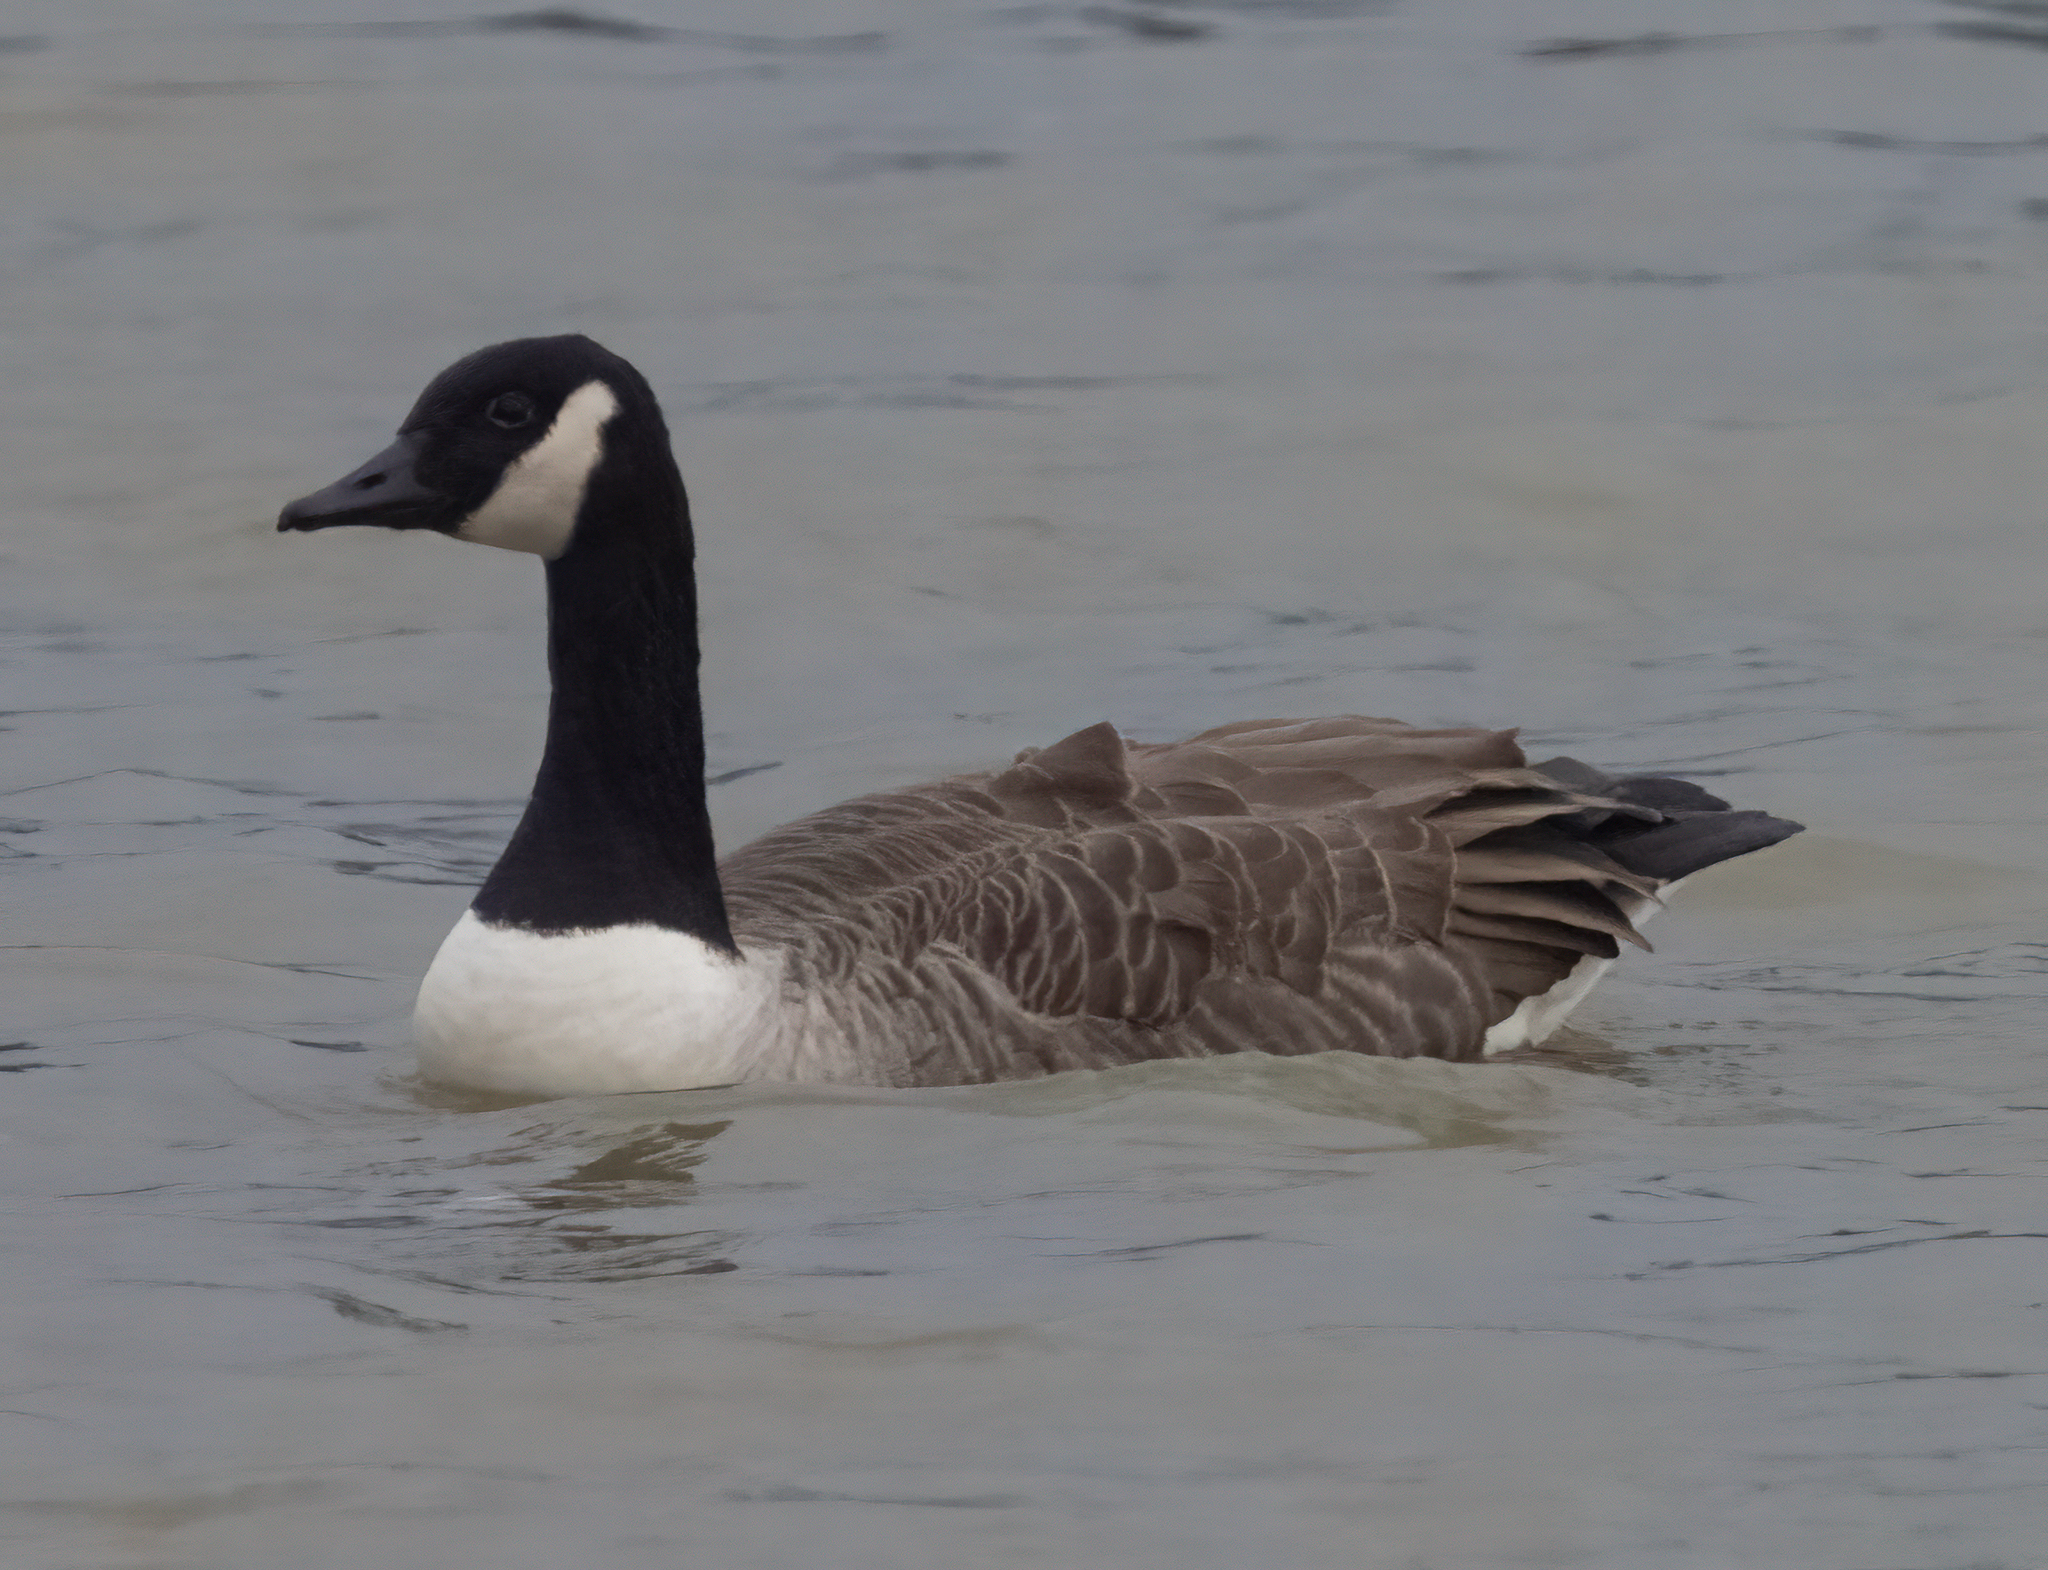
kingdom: Animalia
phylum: Chordata
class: Aves
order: Anseriformes
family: Anatidae
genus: Branta
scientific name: Branta canadensis
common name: Canada goose
